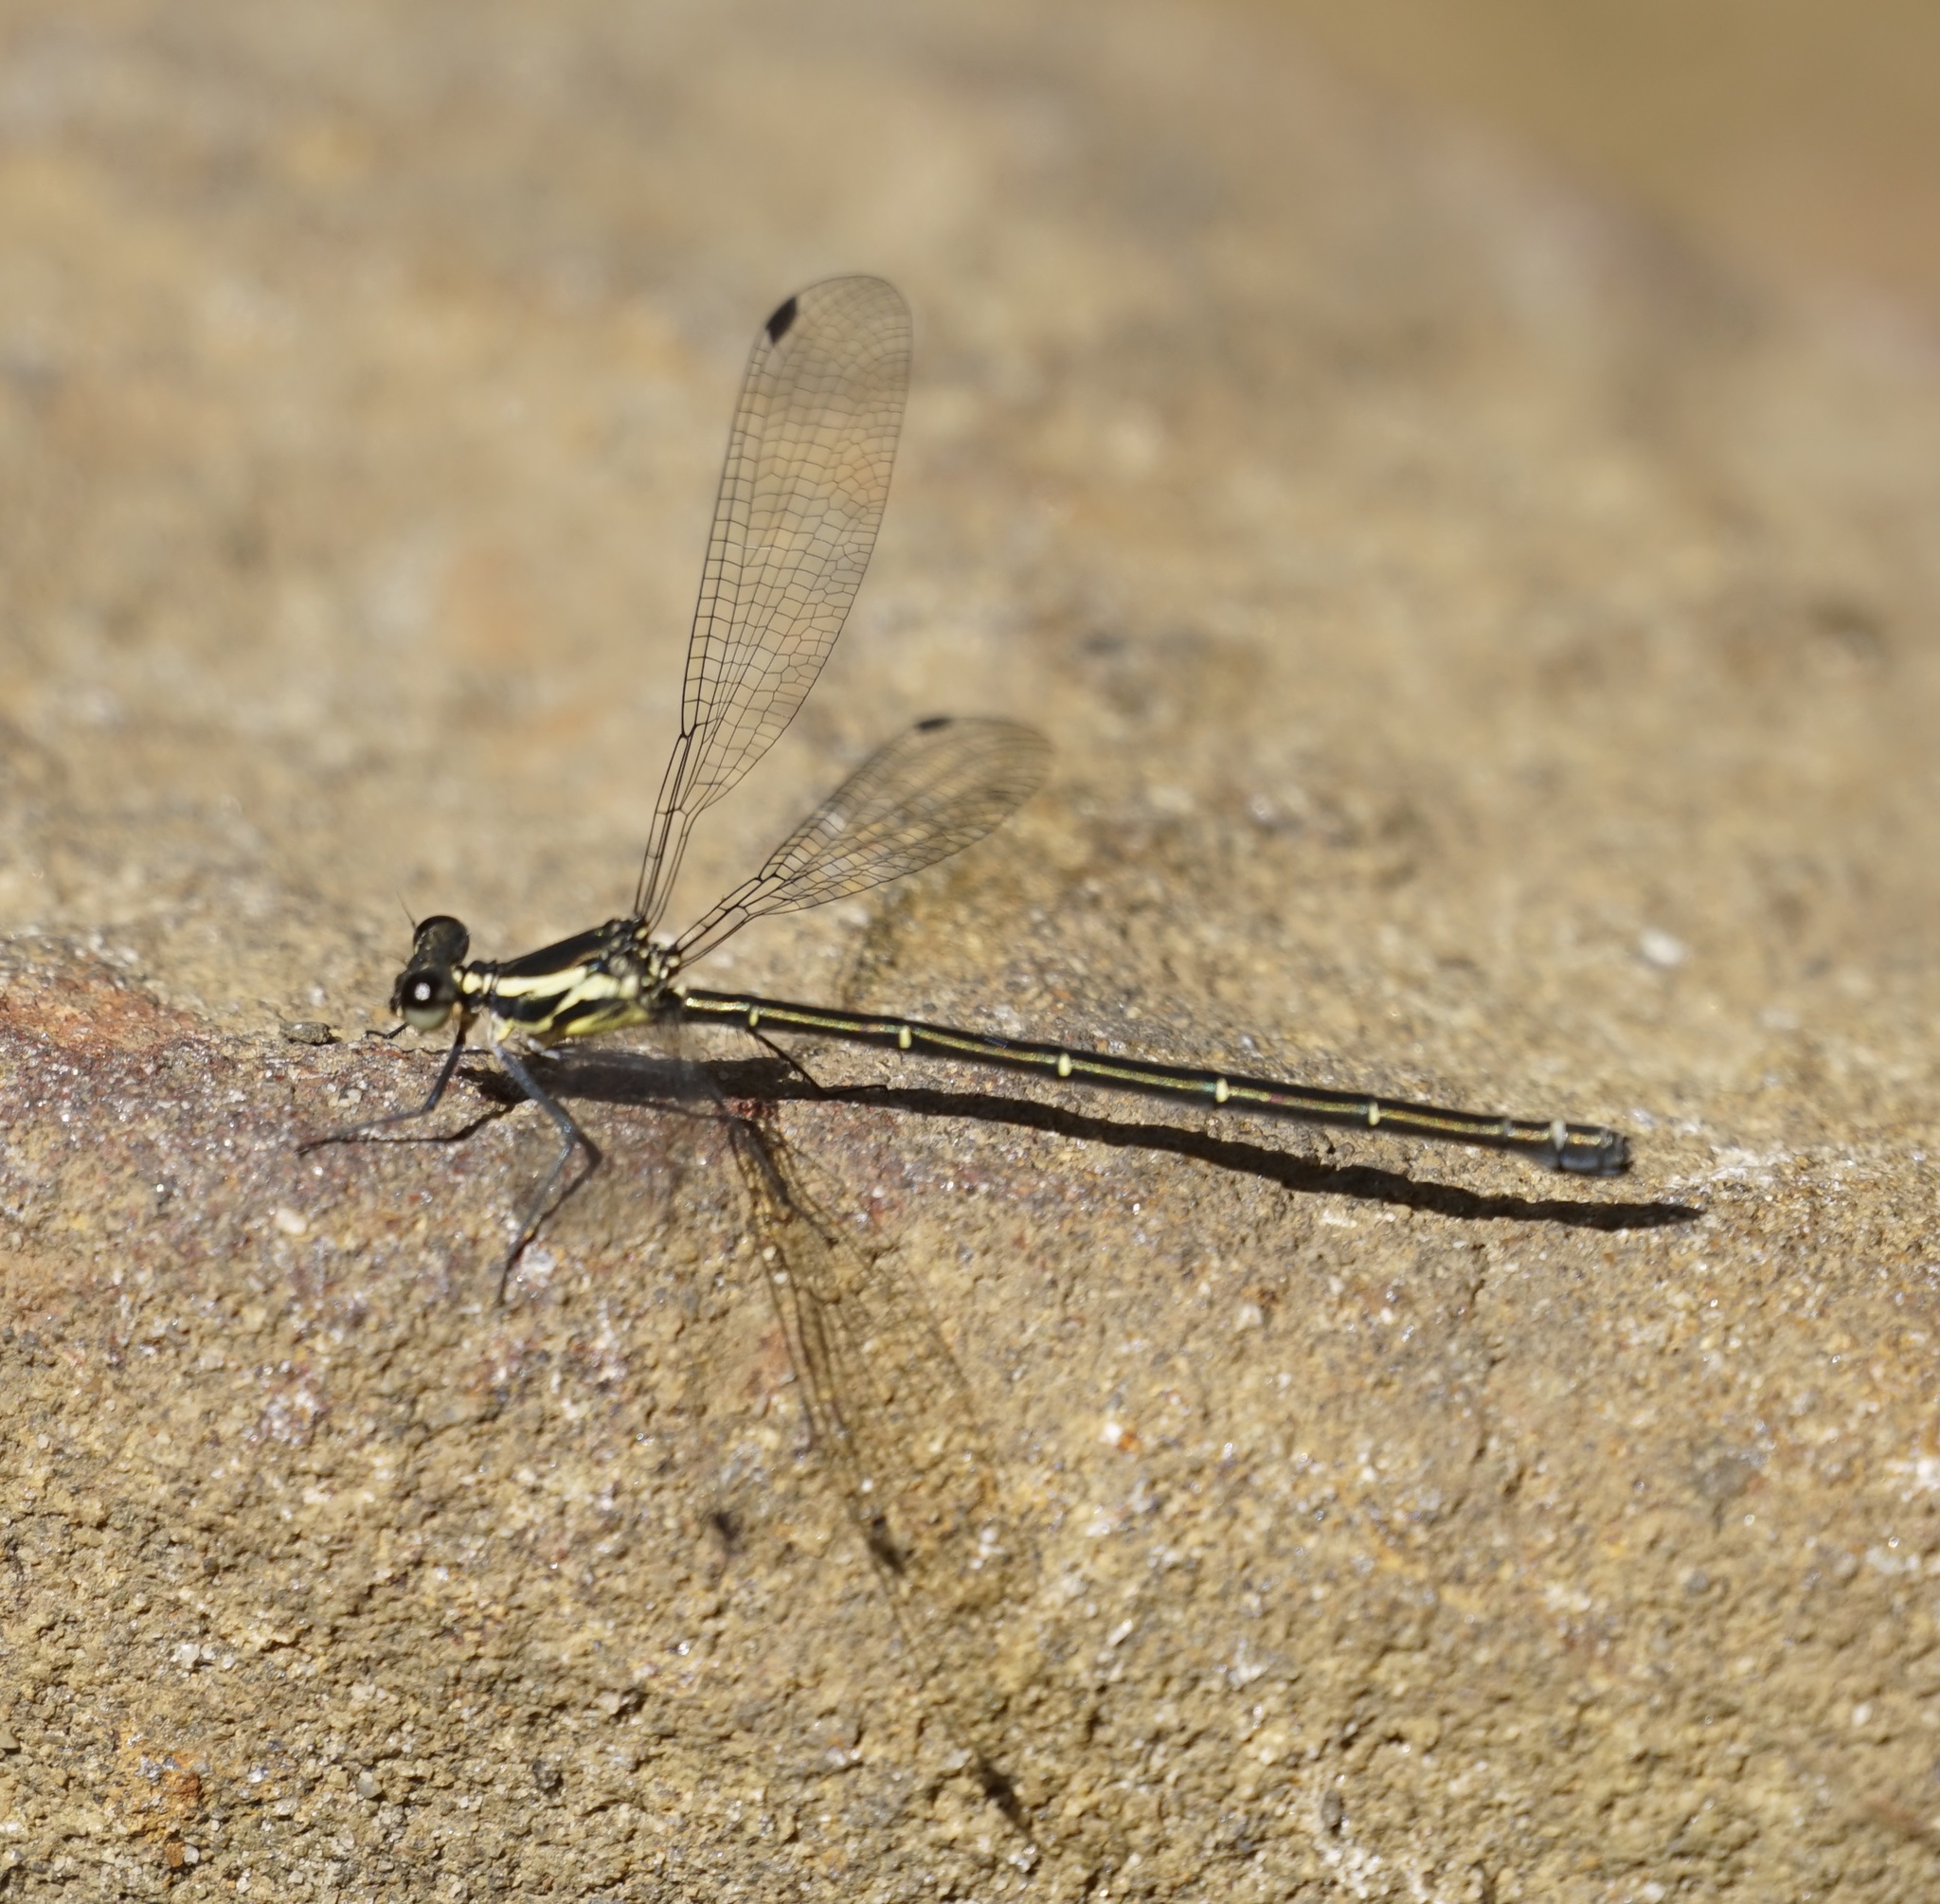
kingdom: Animalia
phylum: Arthropoda
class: Insecta
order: Odonata
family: Argiolestidae
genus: Austroargiolestes
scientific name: Austroargiolestes icteromelas
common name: Common flatwing
